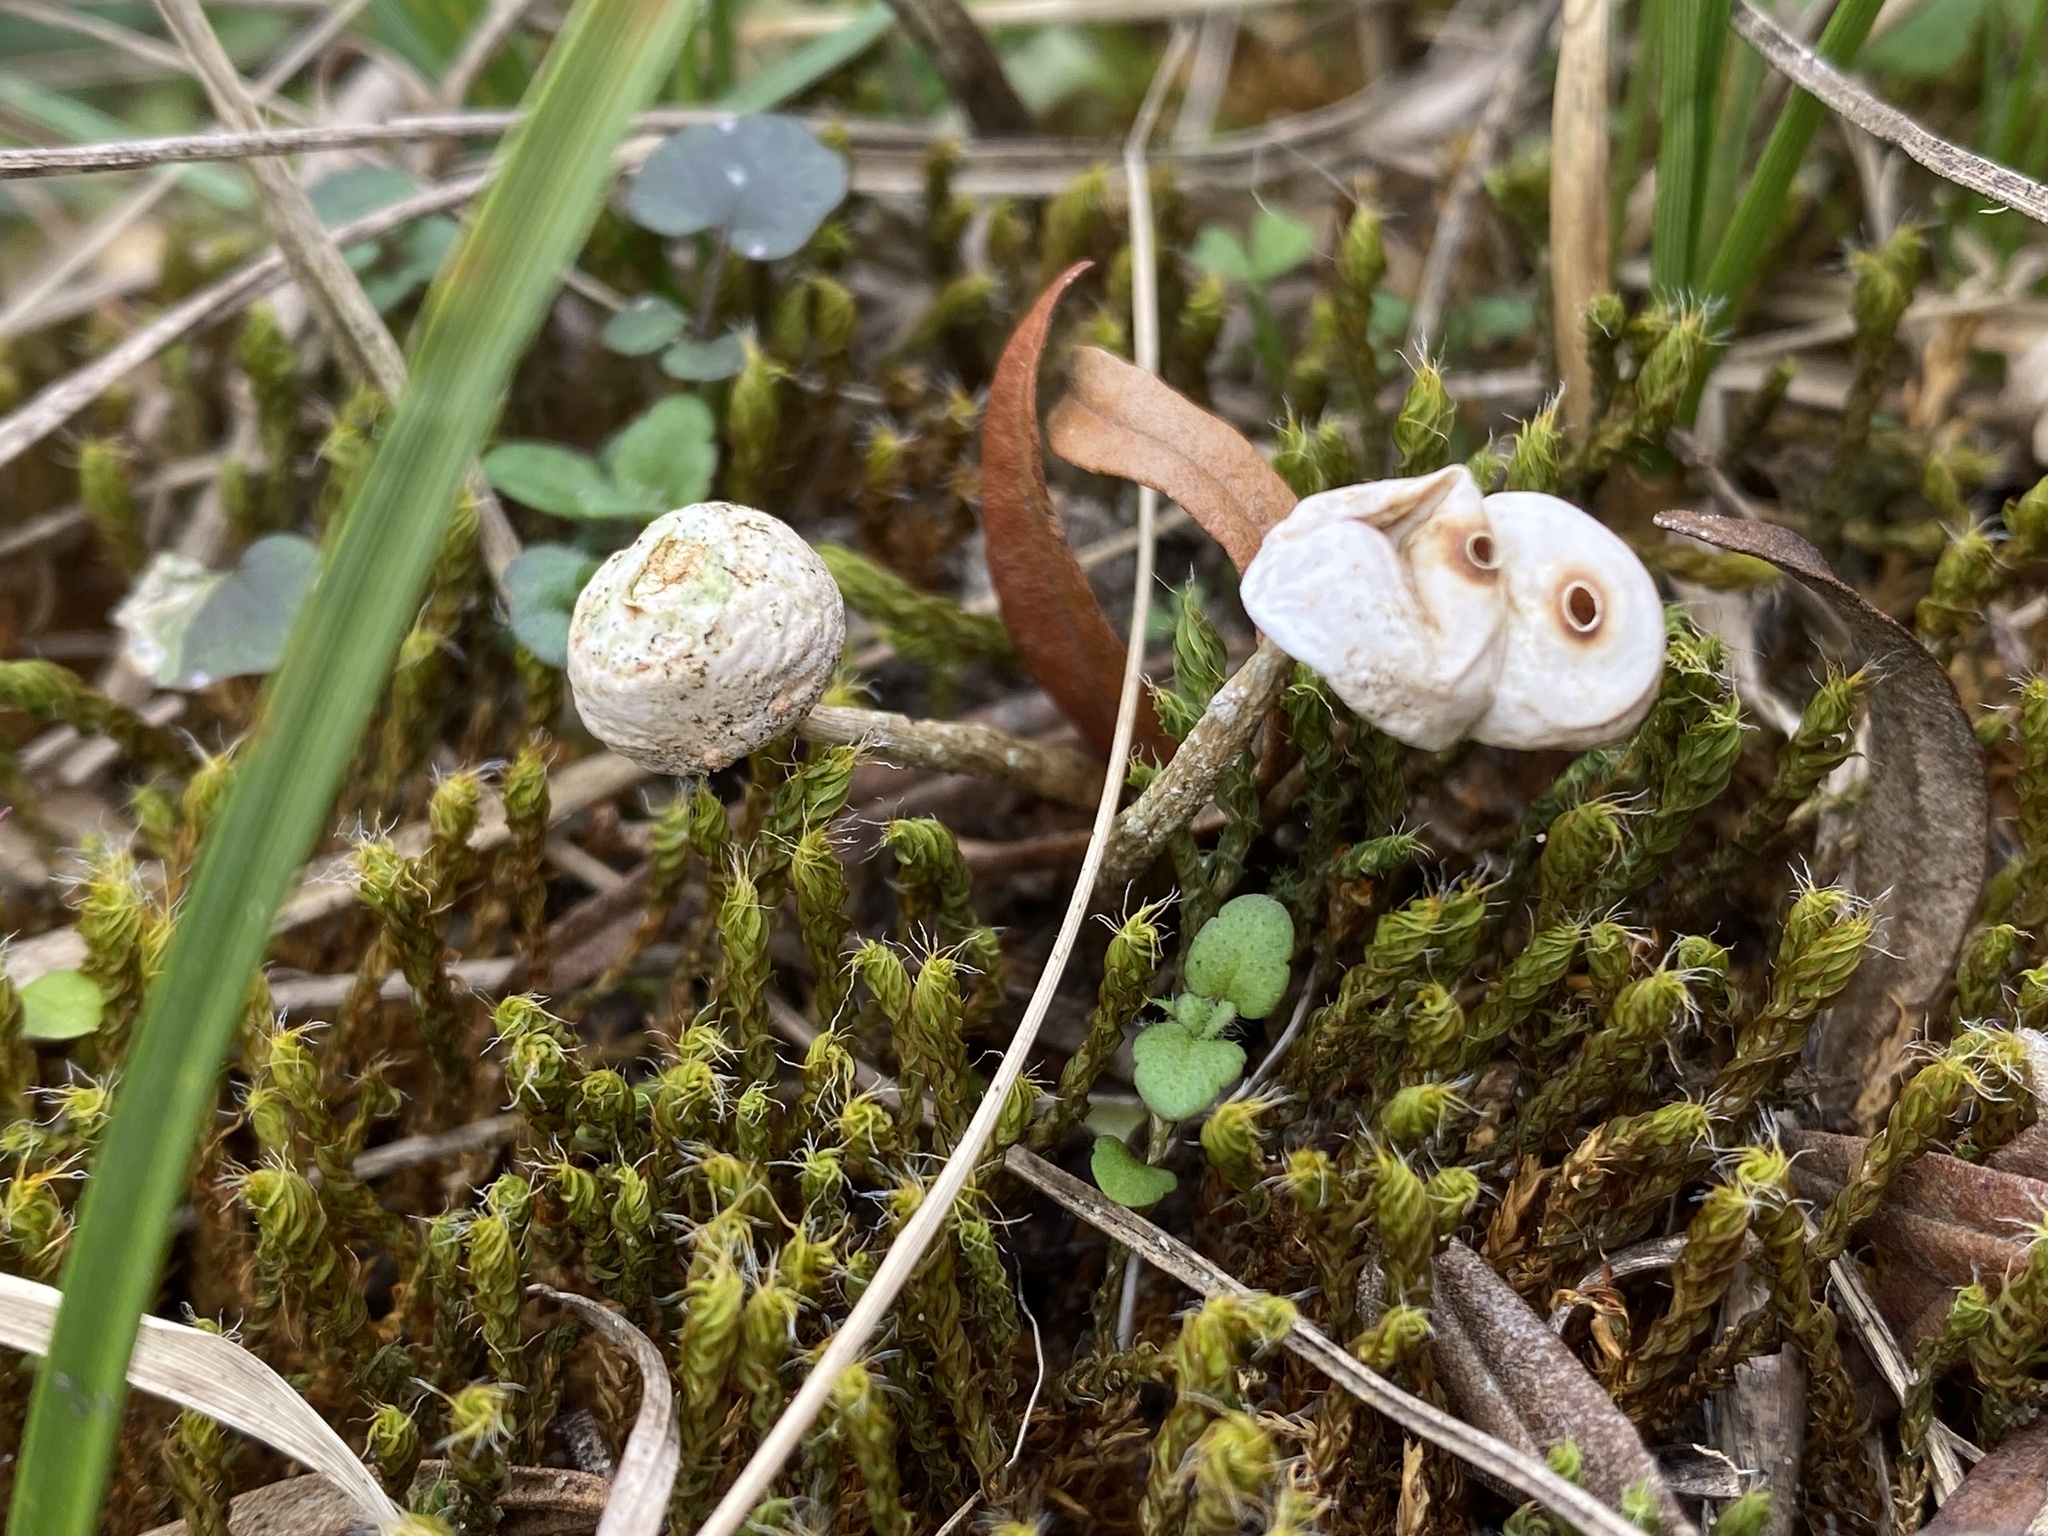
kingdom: Fungi
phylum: Basidiomycota
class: Agaricomycetes
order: Agaricales
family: Agaricaceae
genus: Tulostoma
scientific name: Tulostoma brumale
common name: Winter stalk puffball
